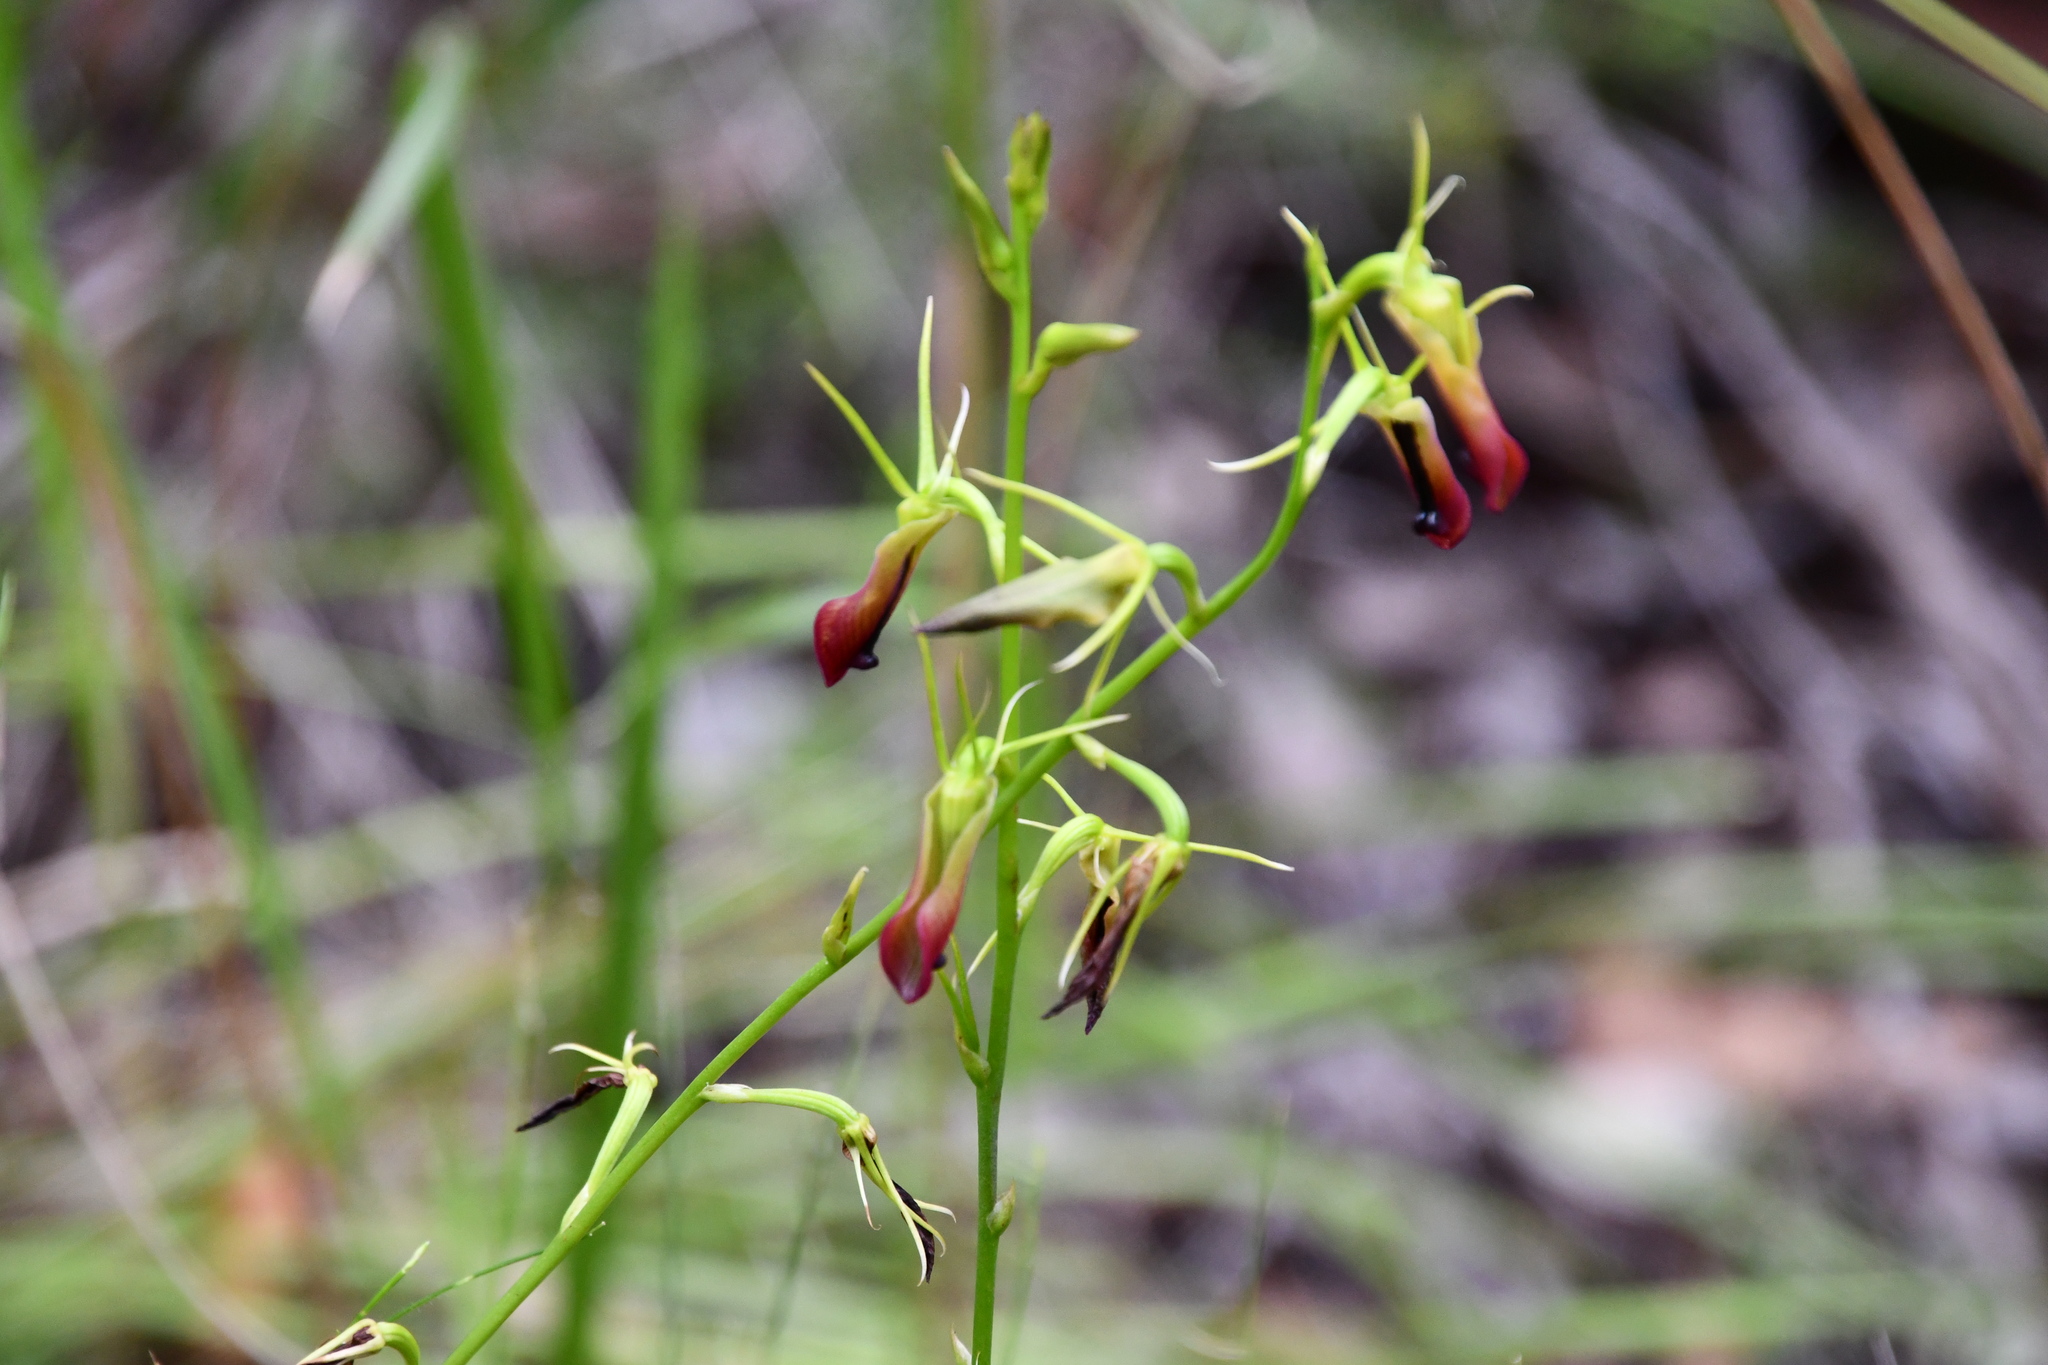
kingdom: Plantae
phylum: Tracheophyta
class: Liliopsida
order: Asparagales
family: Orchidaceae
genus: Cryptostylis
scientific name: Cryptostylis subulata
